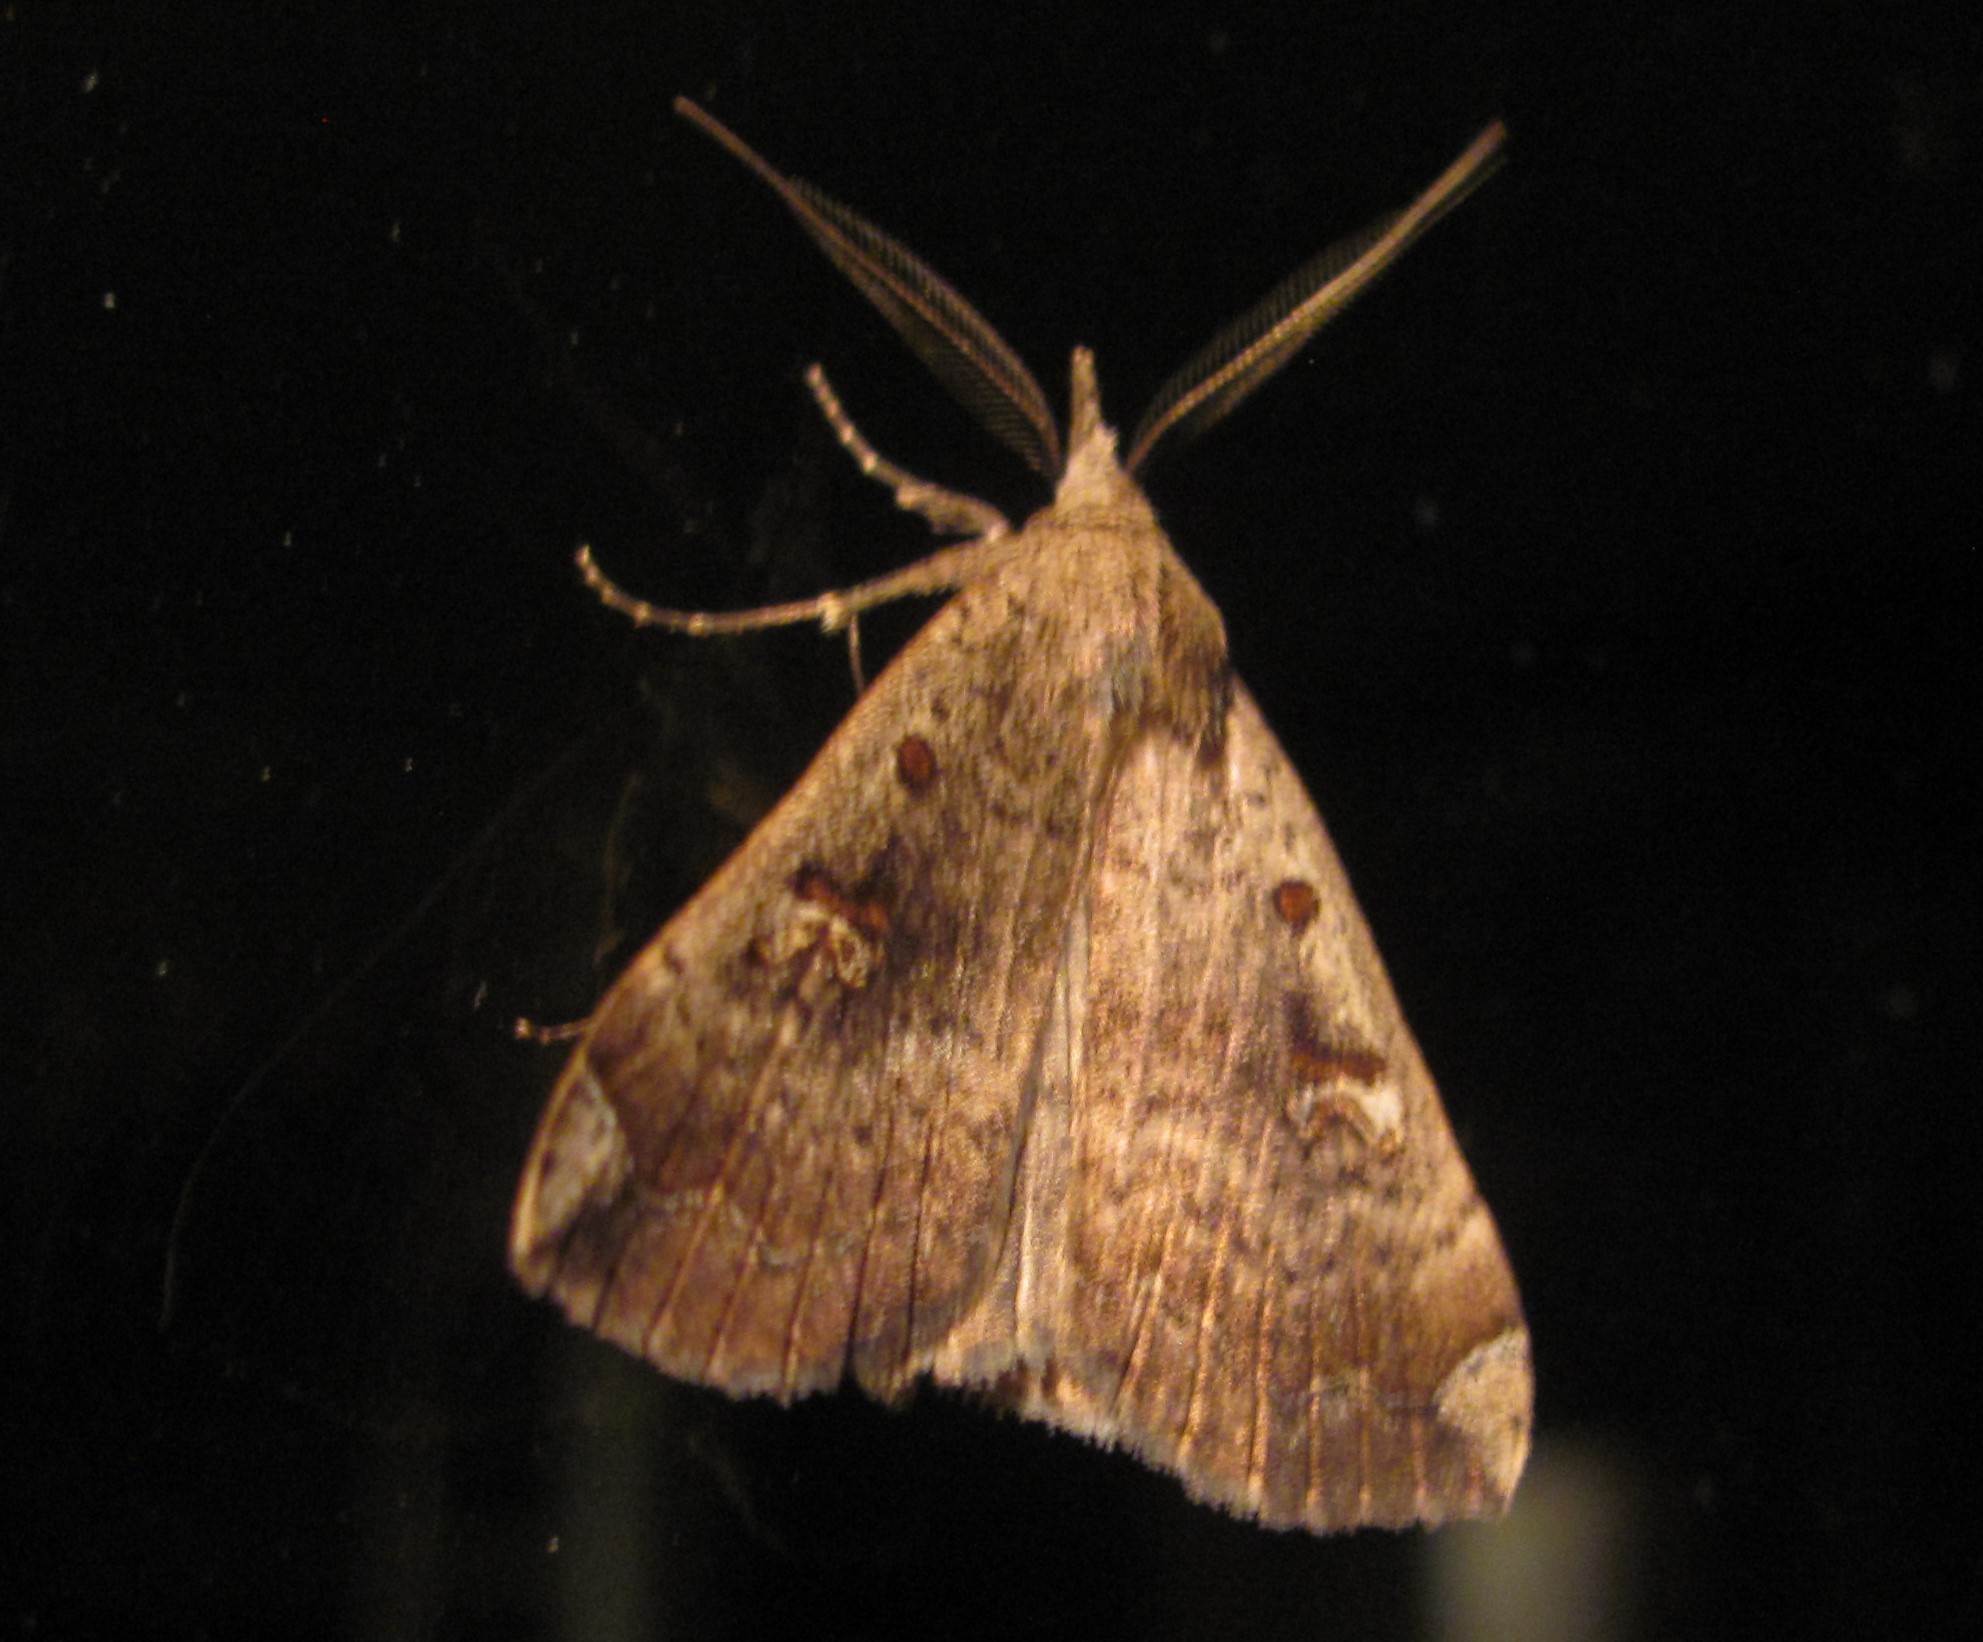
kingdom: Animalia
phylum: Arthropoda
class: Insecta
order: Lepidoptera
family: Erebidae
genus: Rhapsa
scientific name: Rhapsa scotosialis
